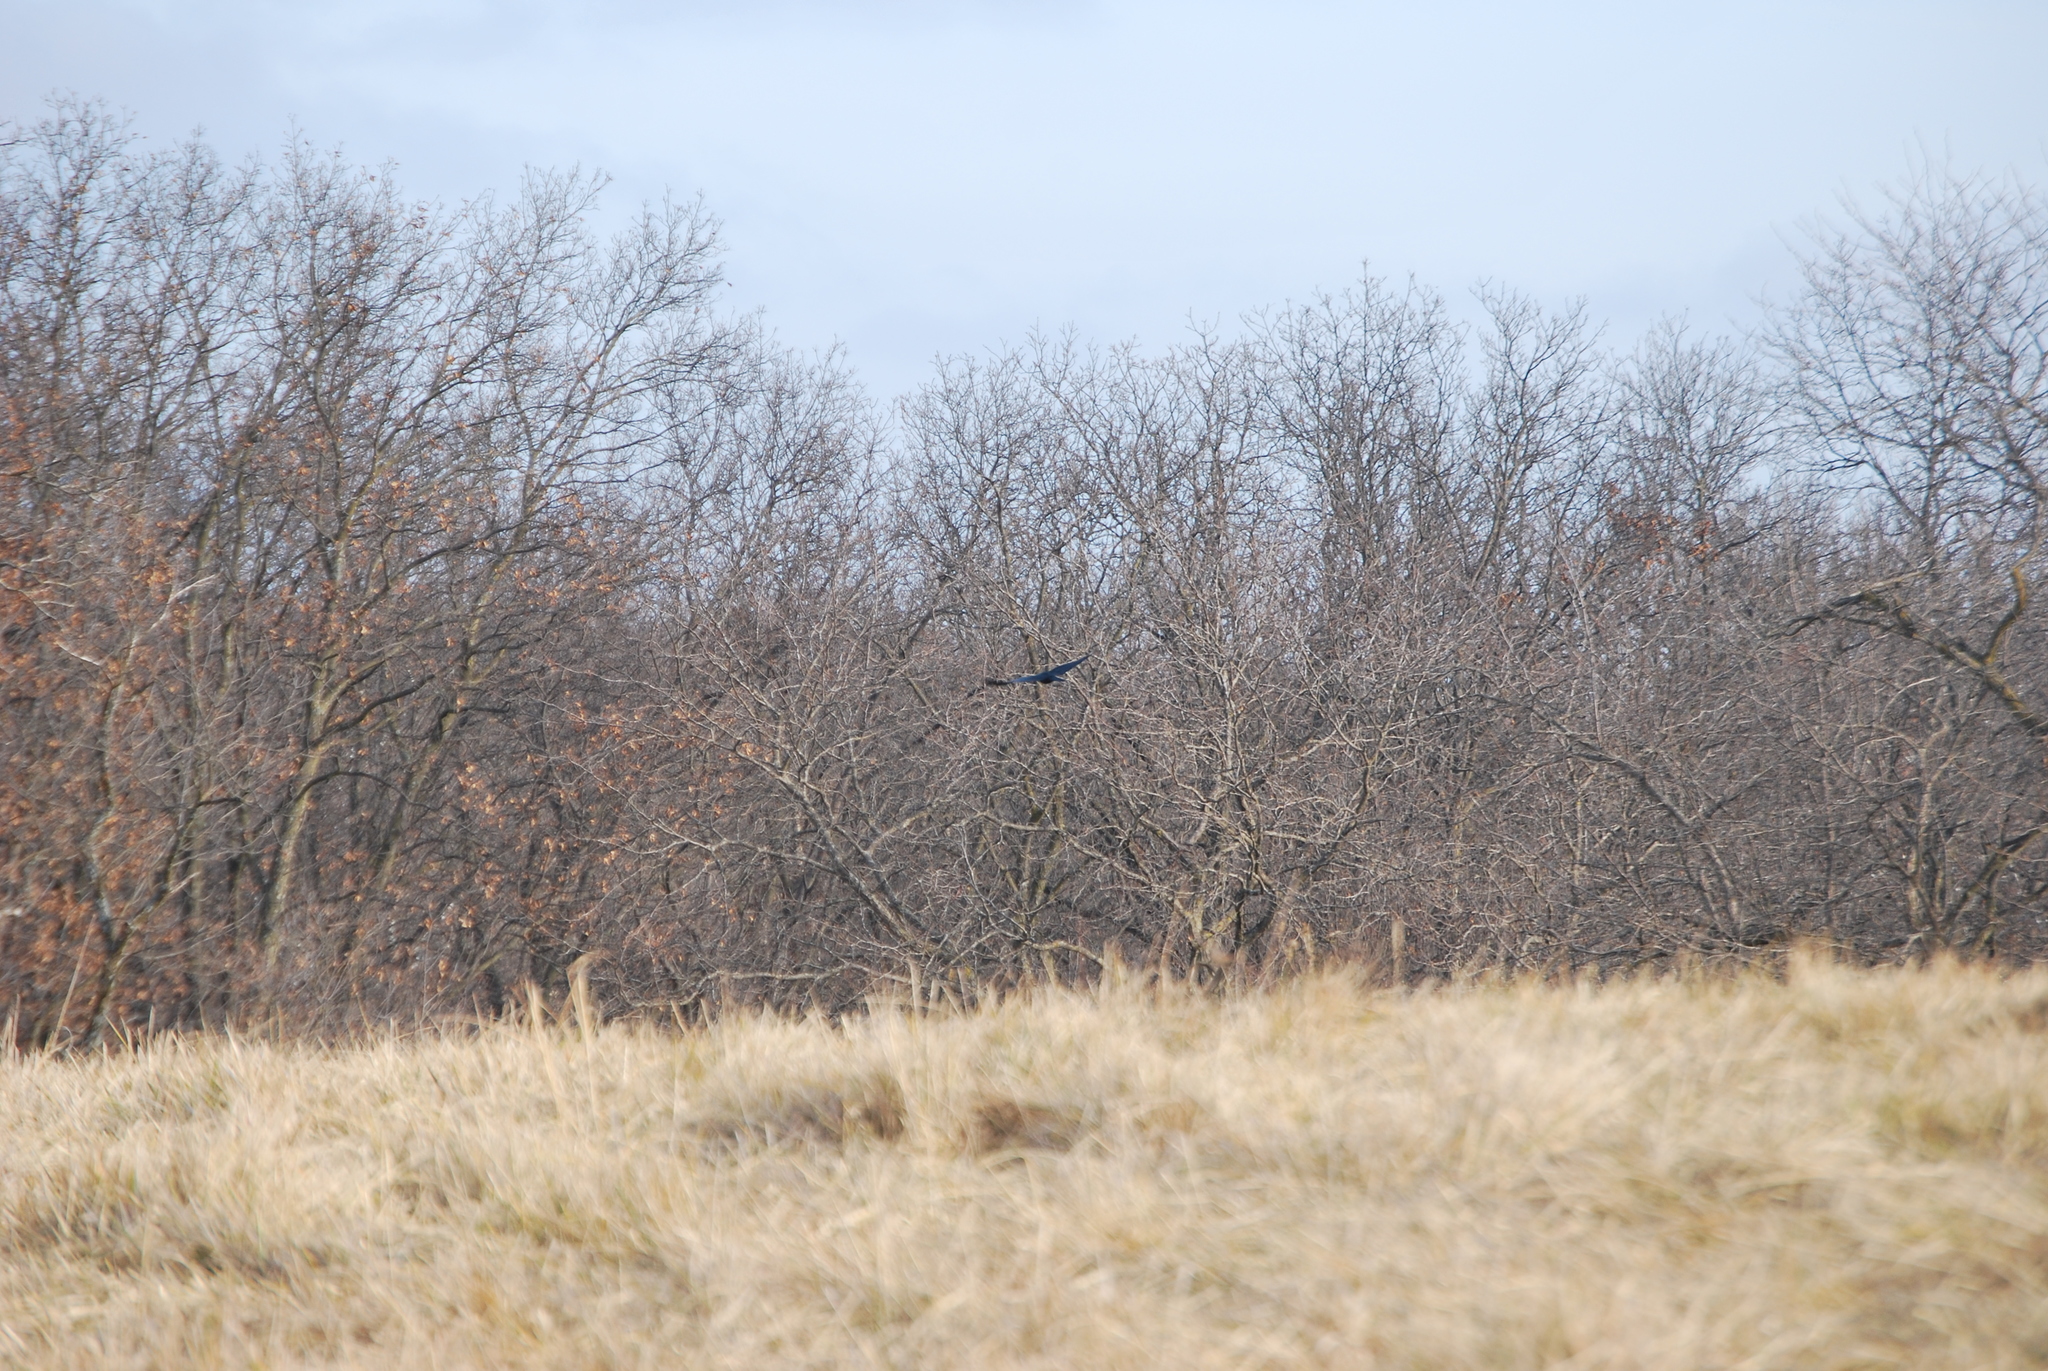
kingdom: Animalia
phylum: Chordata
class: Aves
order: Passeriformes
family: Corvidae
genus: Corvus
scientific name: Corvus brachyrhynchos
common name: American crow
